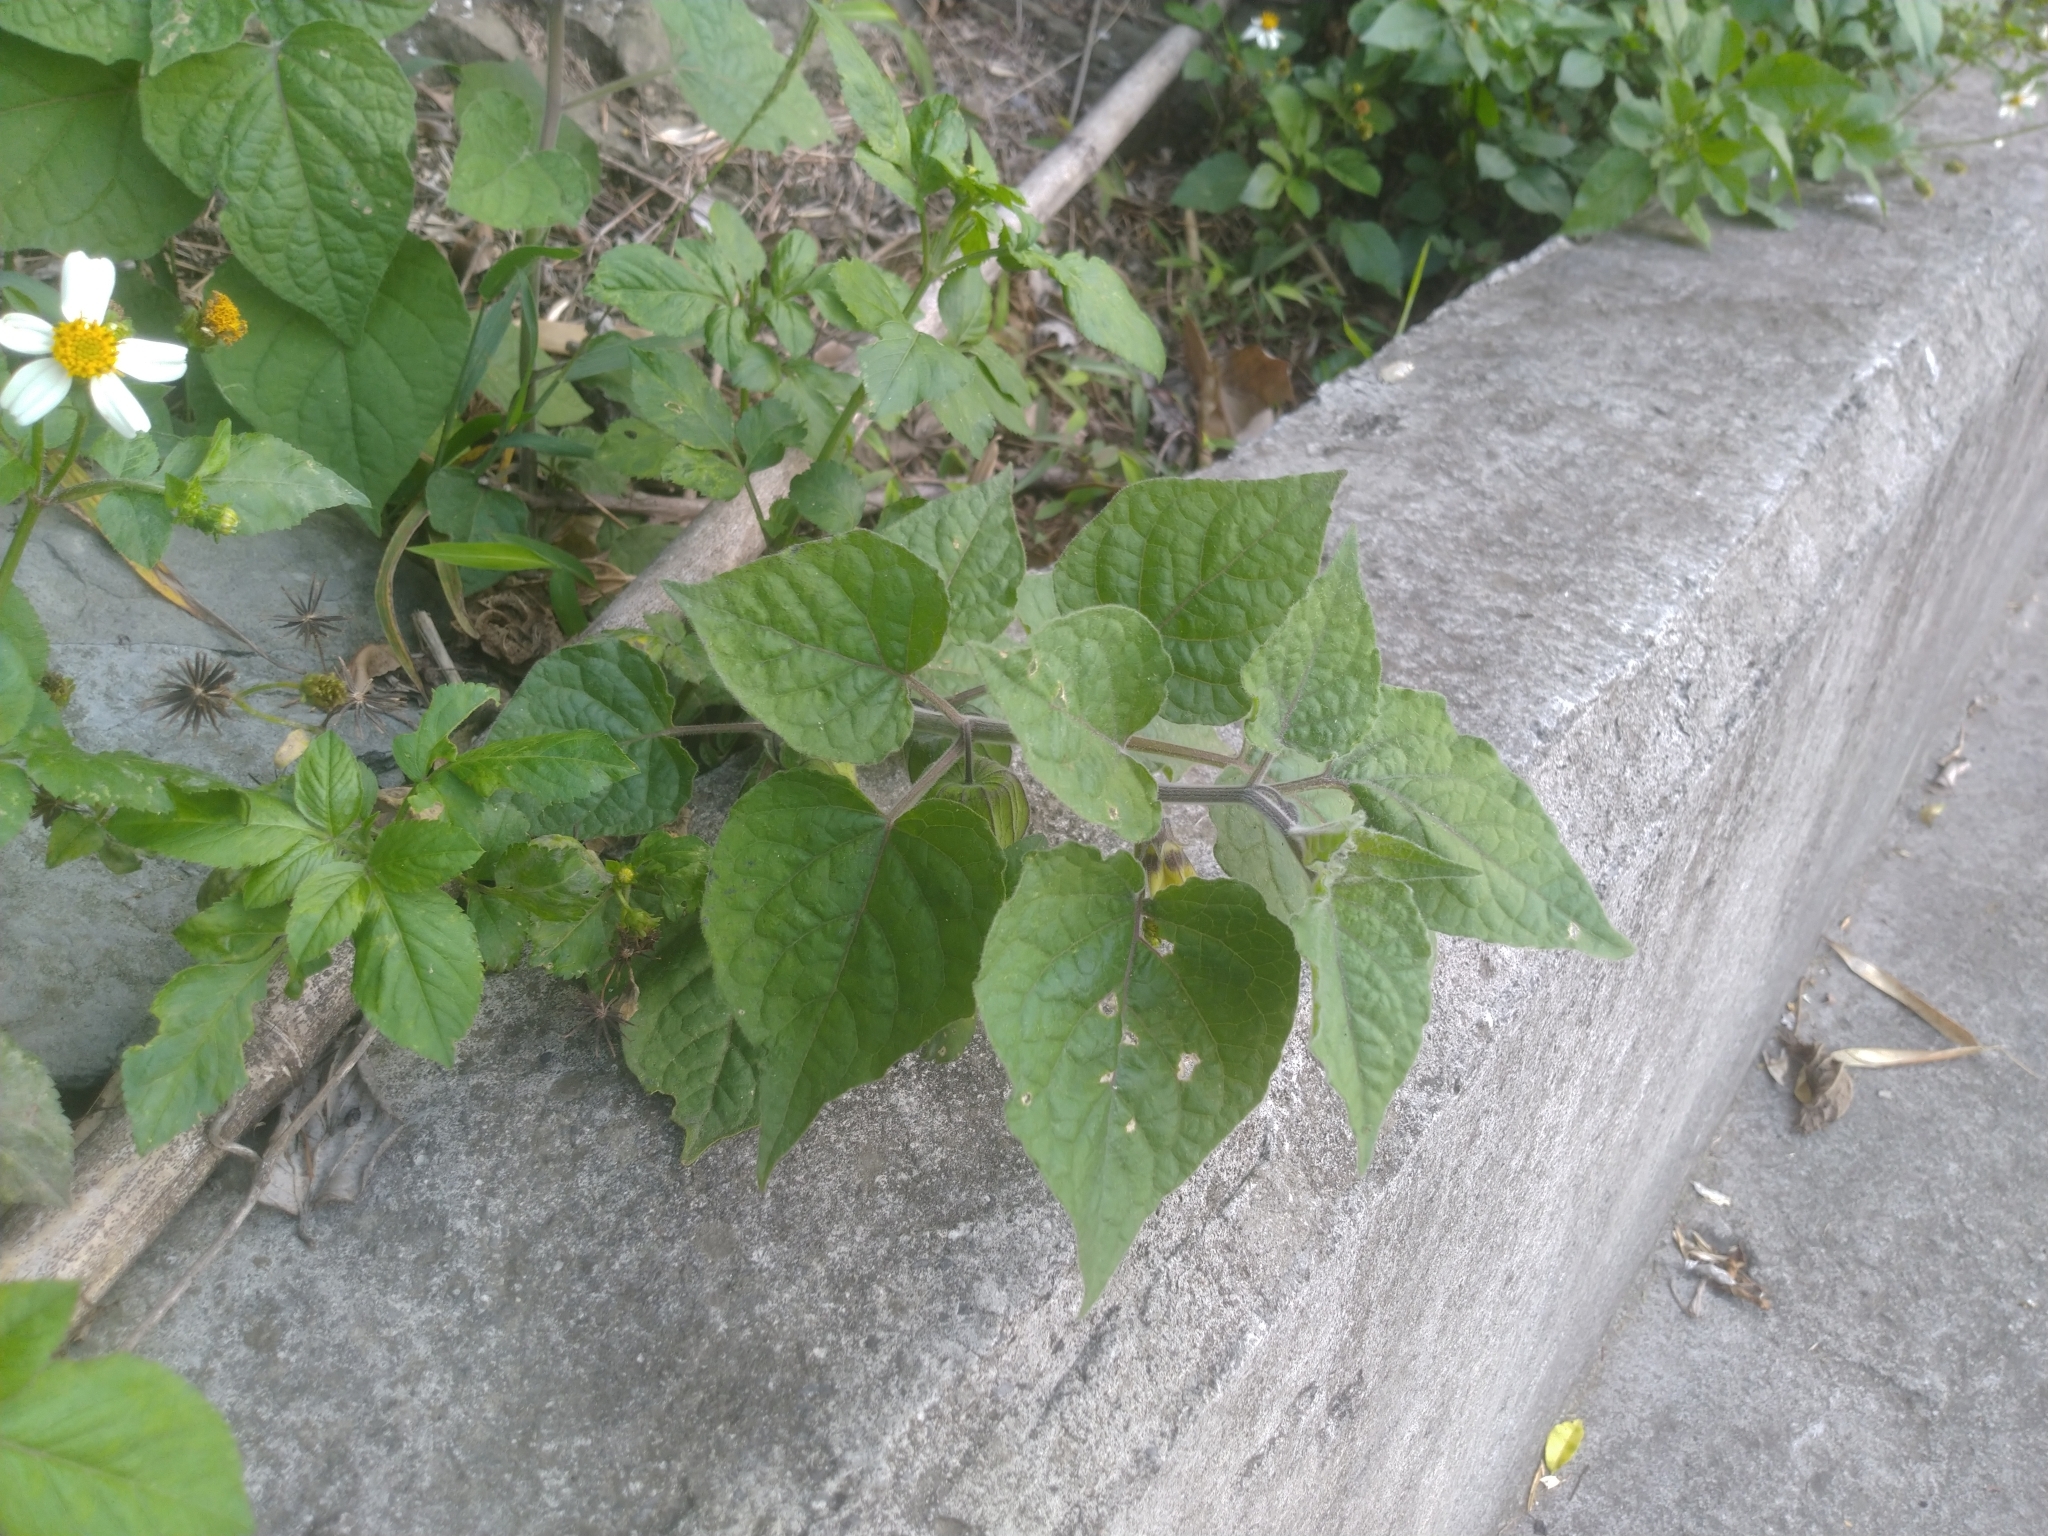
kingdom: Plantae
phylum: Tracheophyta
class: Magnoliopsida
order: Solanales
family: Solanaceae
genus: Physalis
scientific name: Physalis peruviana
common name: Cape-gooseberry
